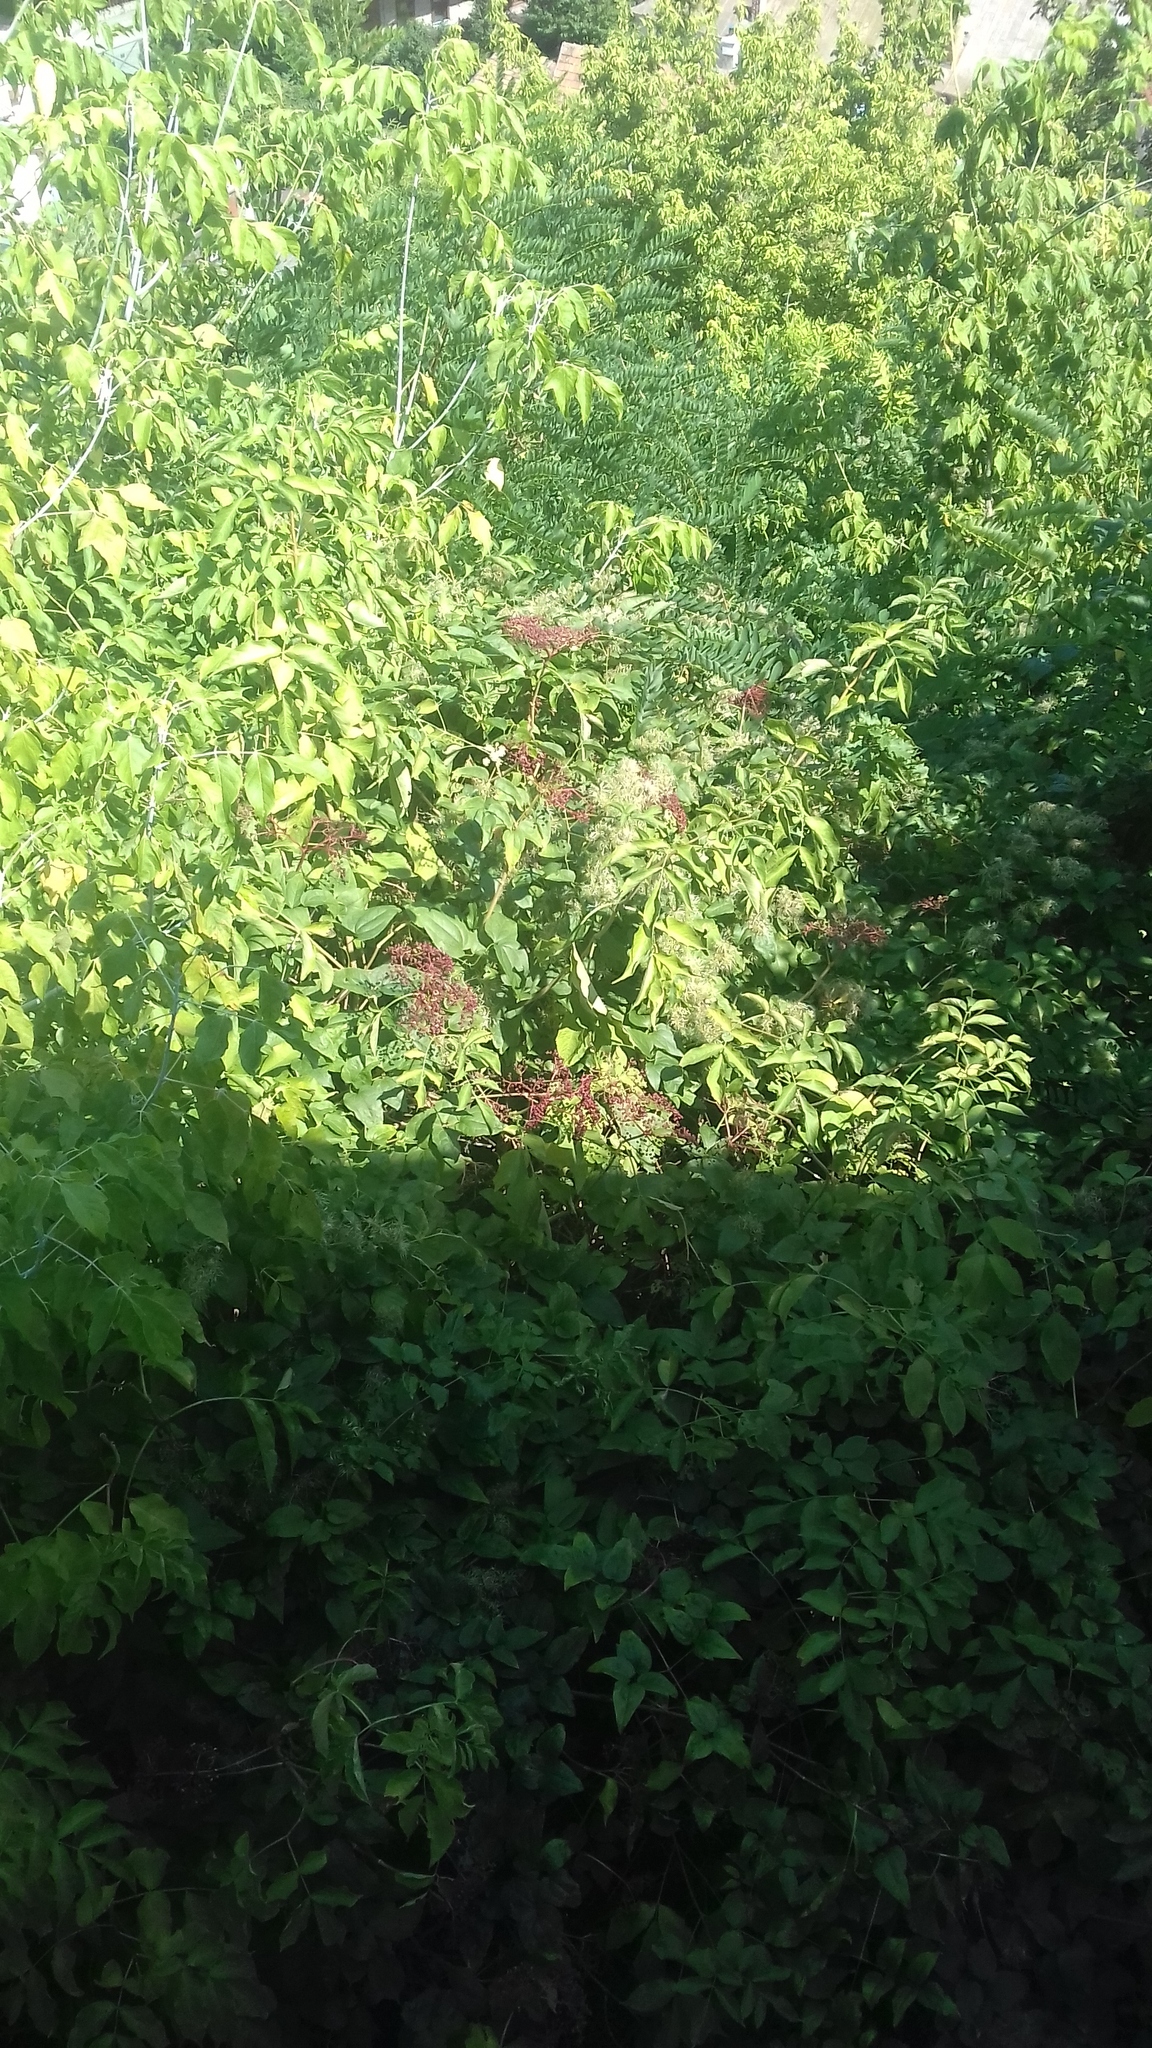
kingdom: Plantae
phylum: Tracheophyta
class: Magnoliopsida
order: Dipsacales
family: Viburnaceae
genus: Sambucus
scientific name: Sambucus nigra
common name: Elder
